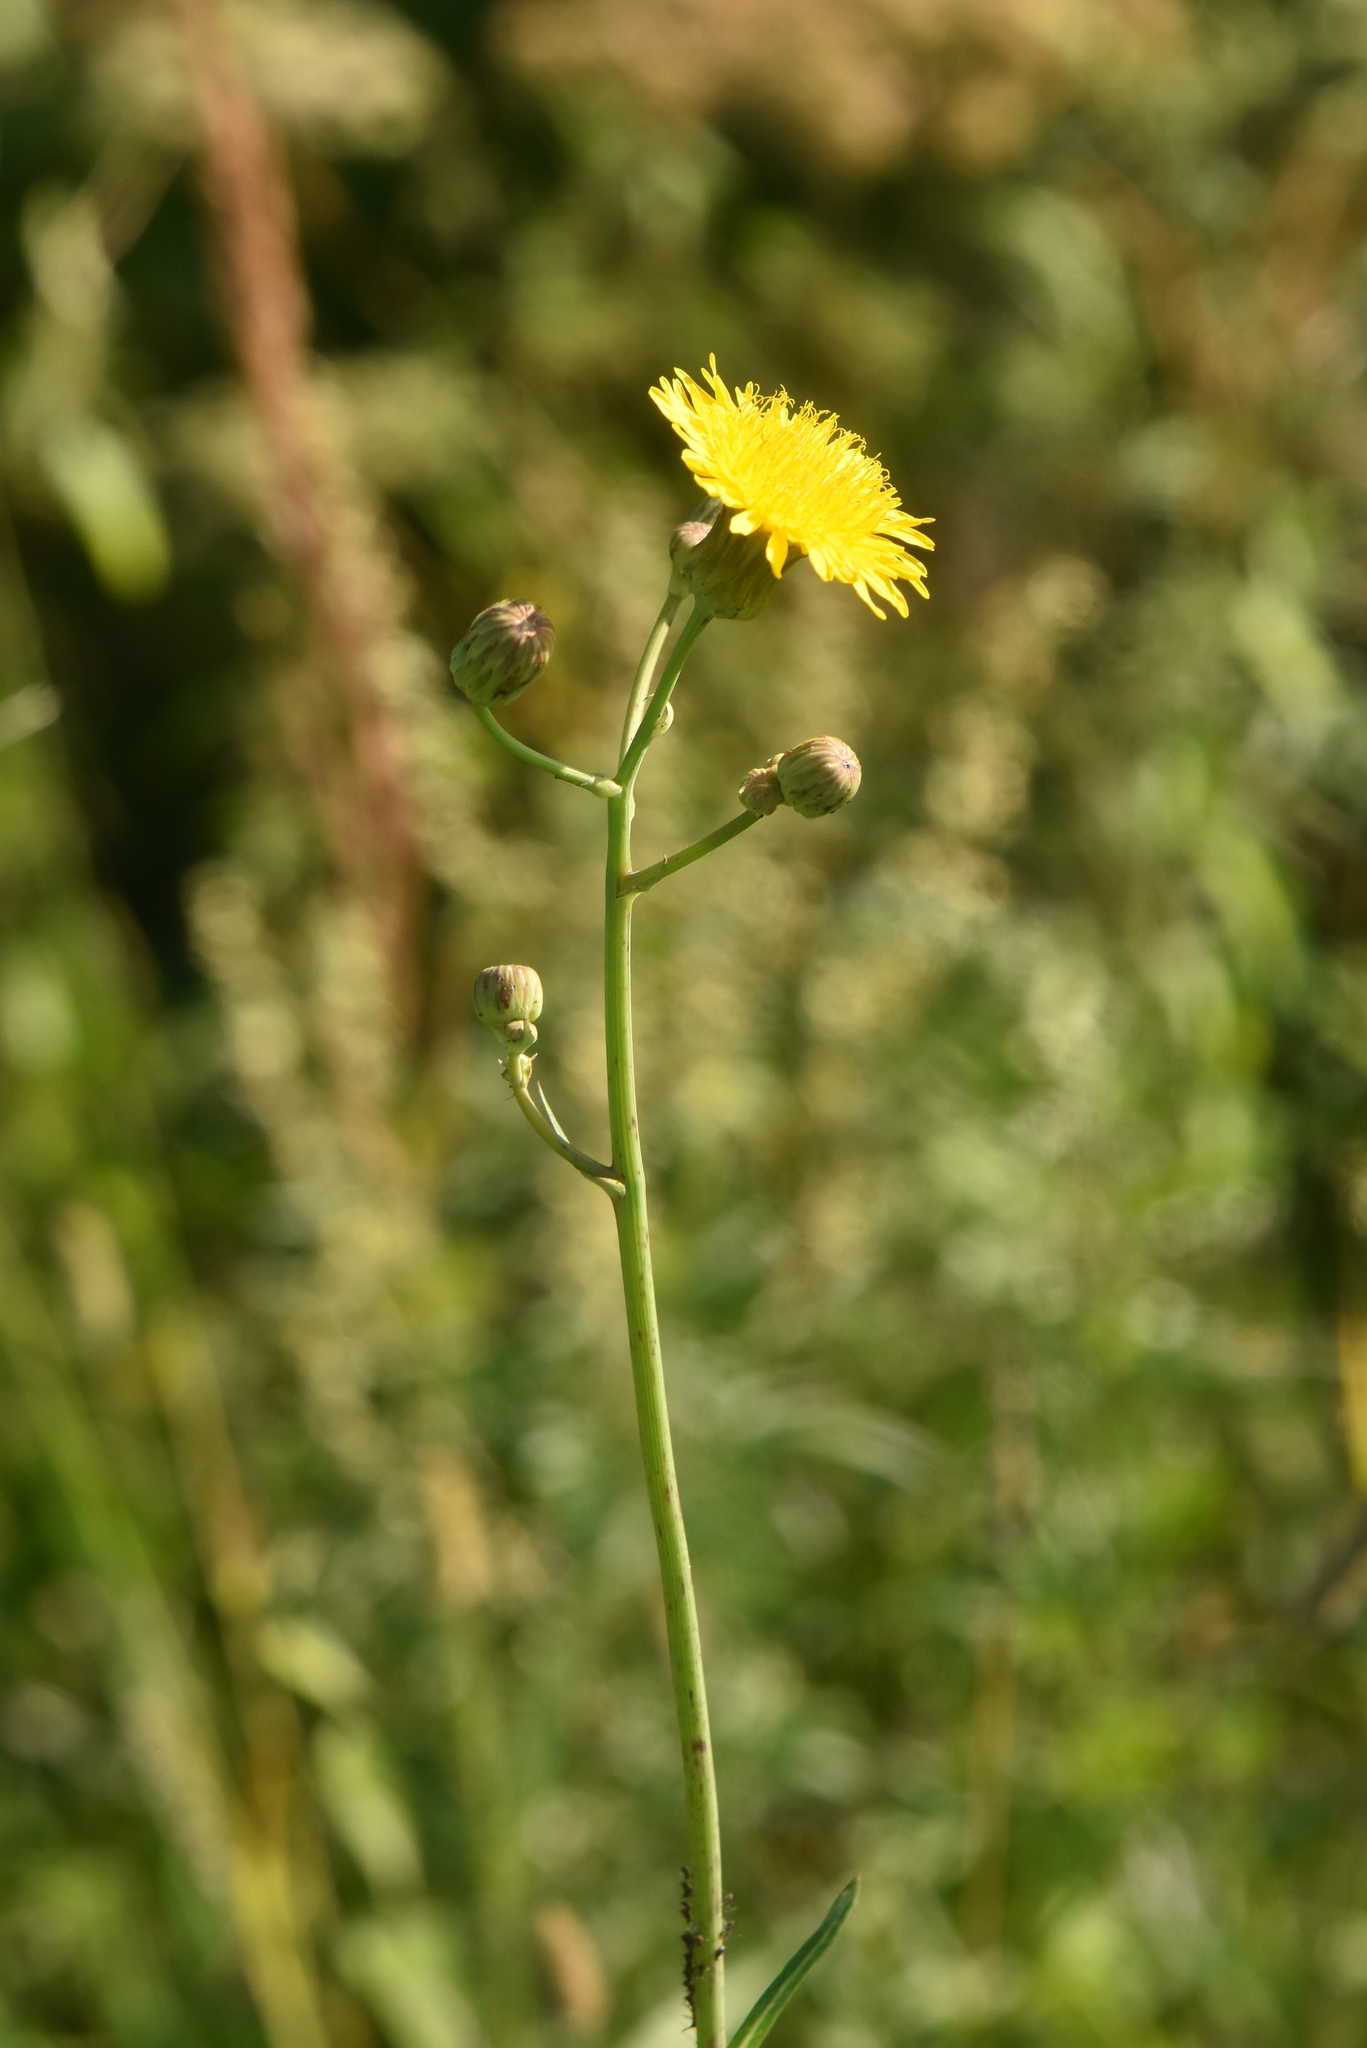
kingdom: Plantae
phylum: Tracheophyta
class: Magnoliopsida
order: Asterales
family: Asteraceae
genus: Sonchus
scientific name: Sonchus arvensis
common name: Perennial sow-thistle
